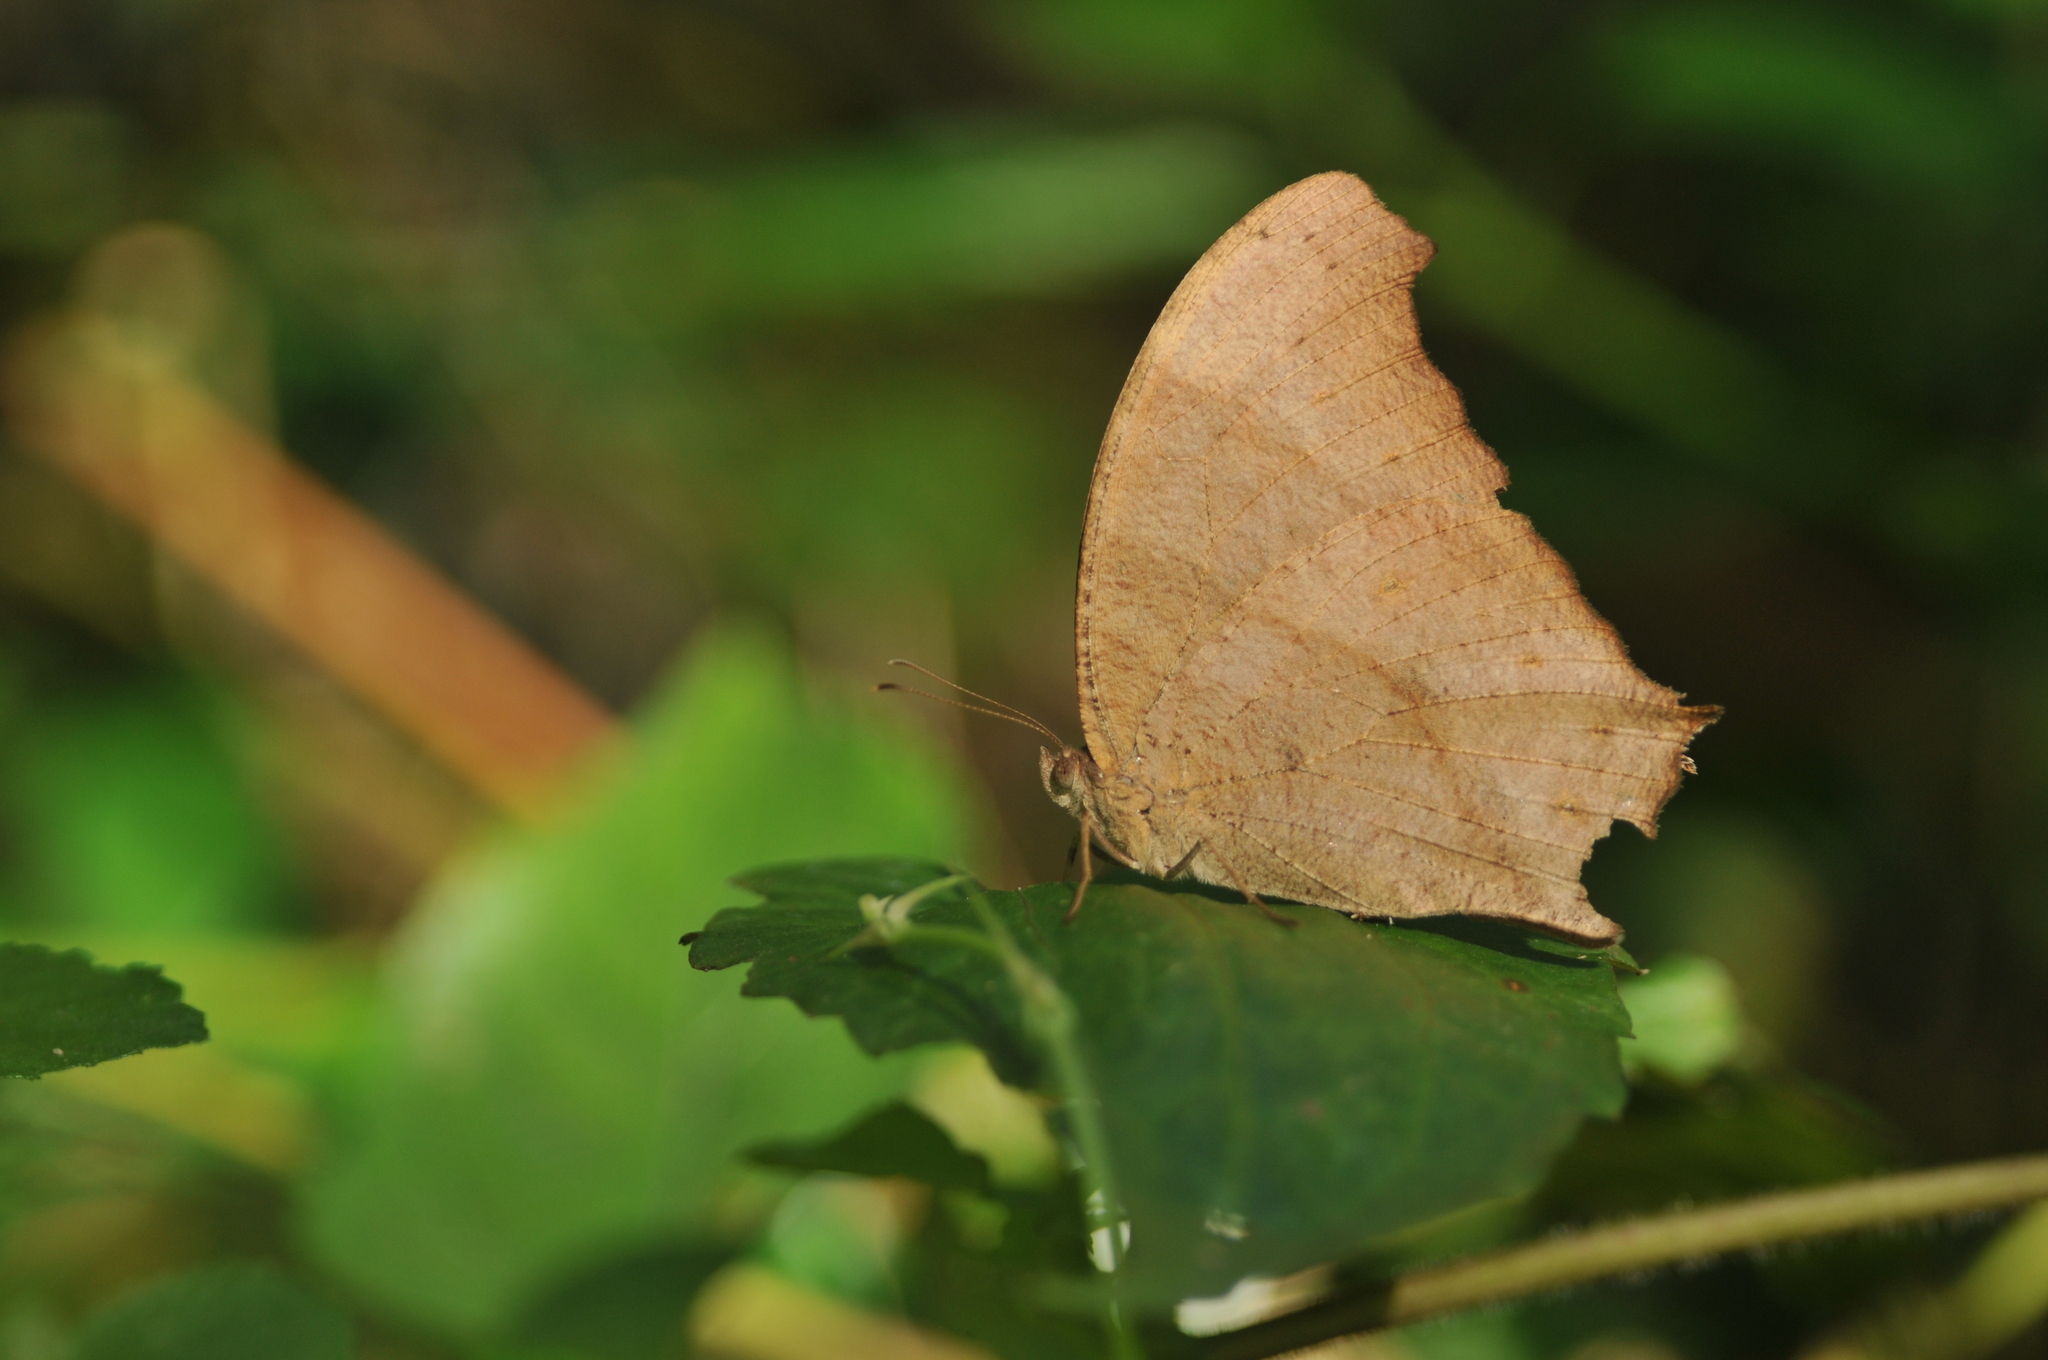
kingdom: Animalia
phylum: Arthropoda
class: Insecta
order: Lepidoptera
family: Nymphalidae
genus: Melanitis
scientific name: Melanitis leda
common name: Twilight brown
